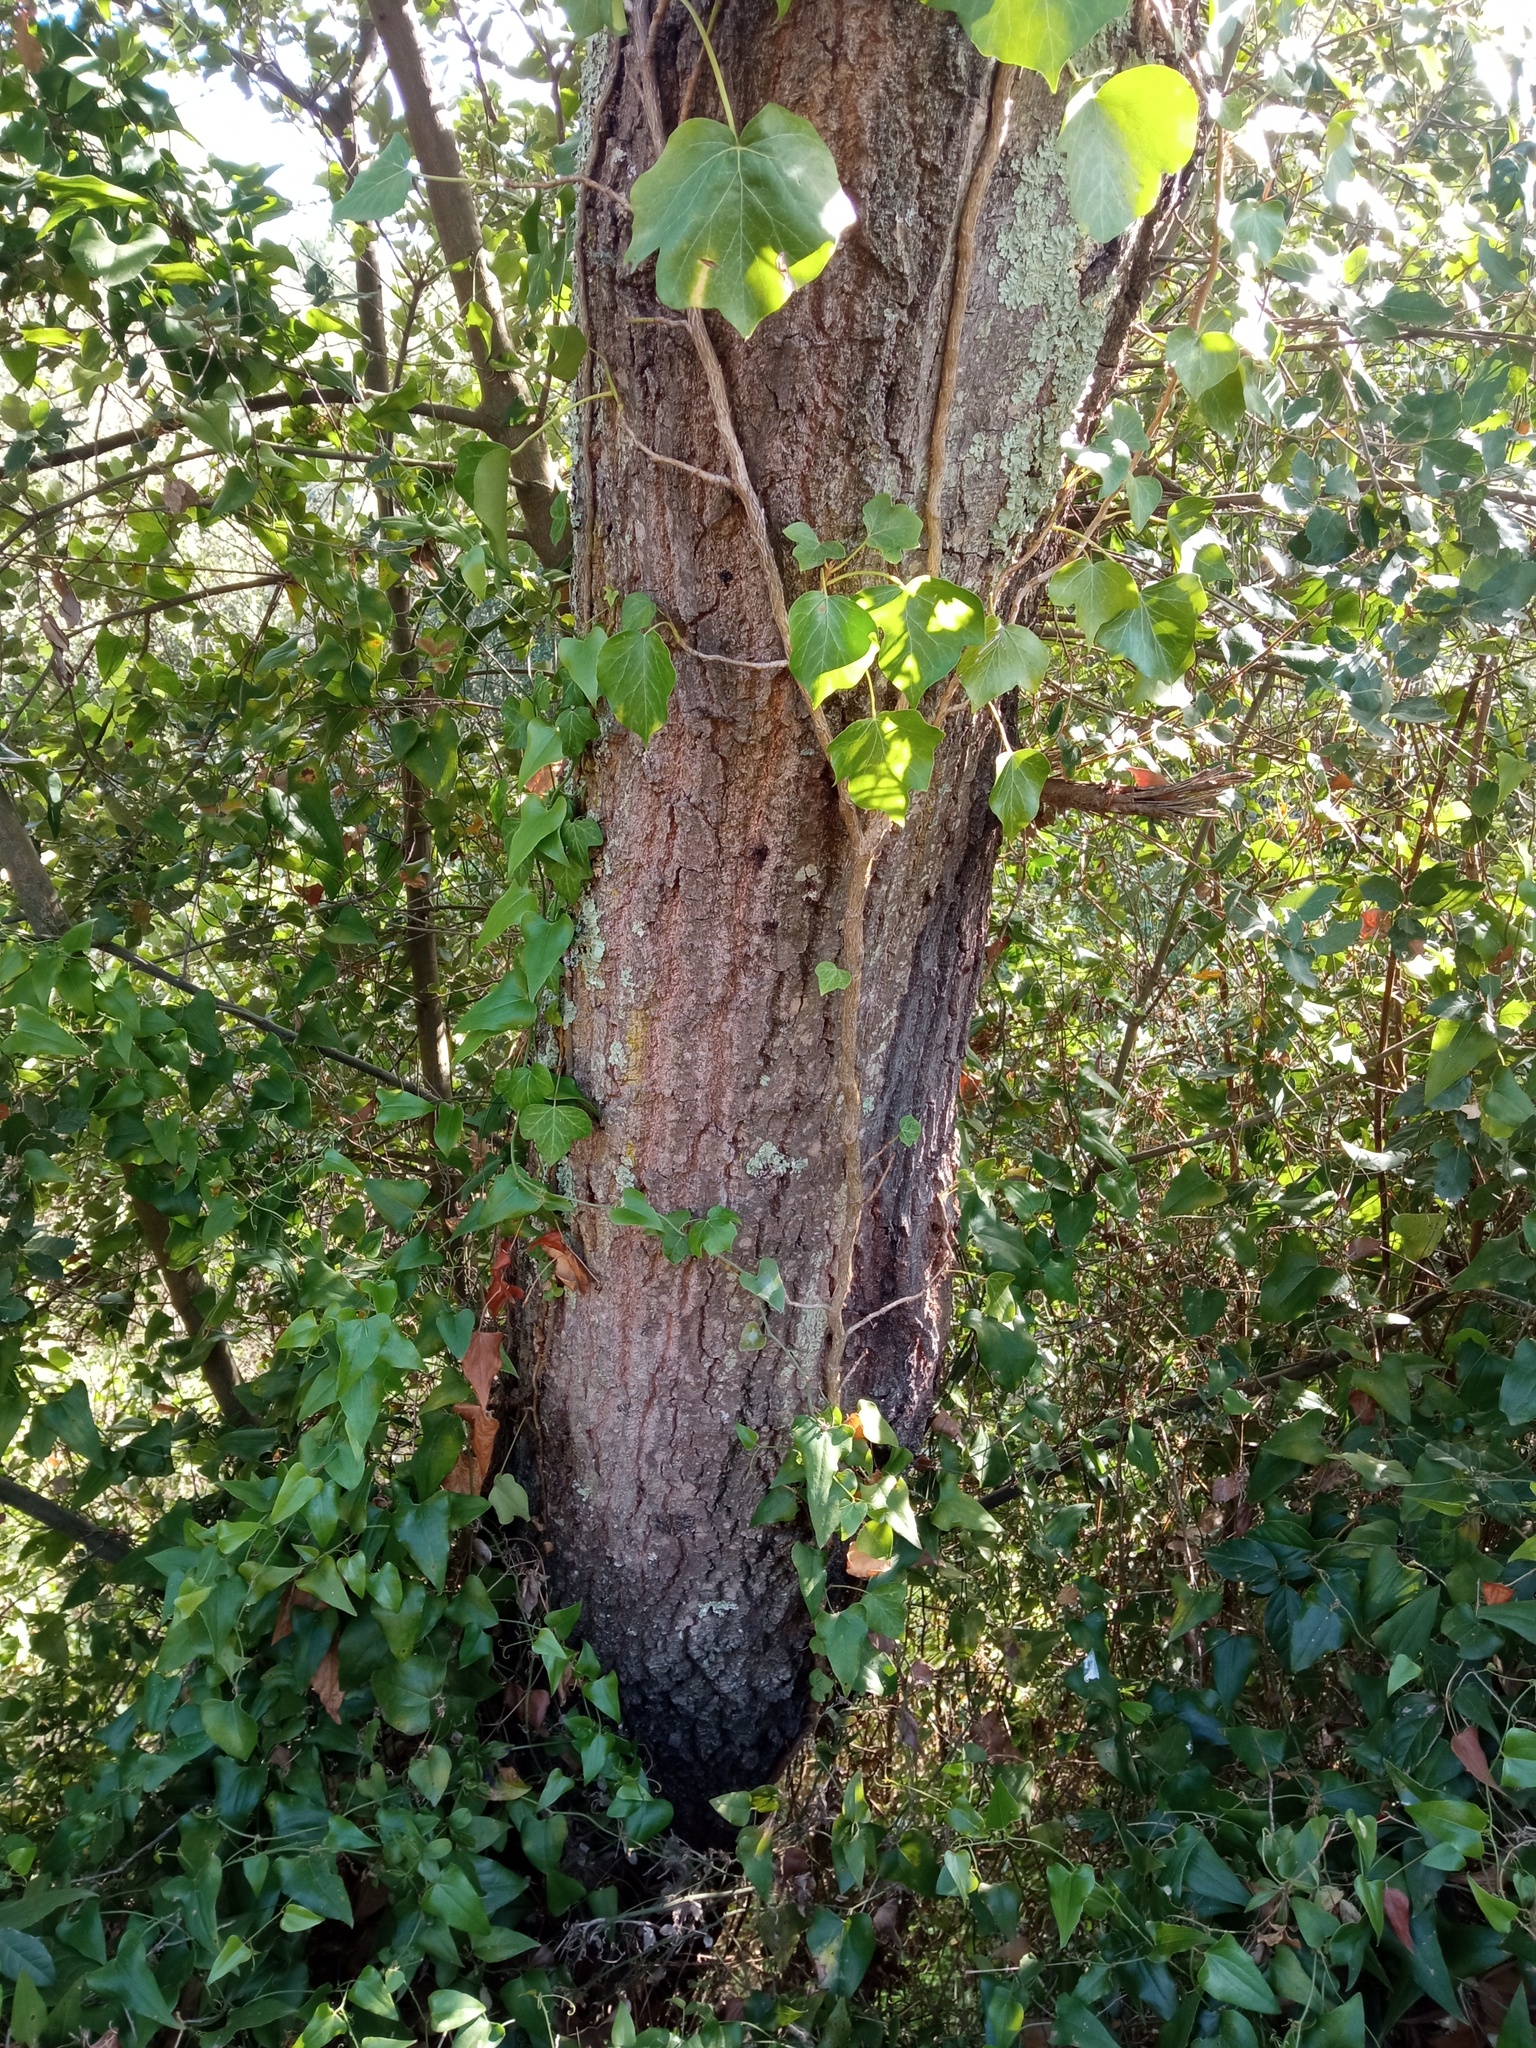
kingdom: Plantae
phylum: Tracheophyta
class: Magnoliopsida
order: Fagales
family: Fagaceae
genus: Quercus
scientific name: Quercus morisii
